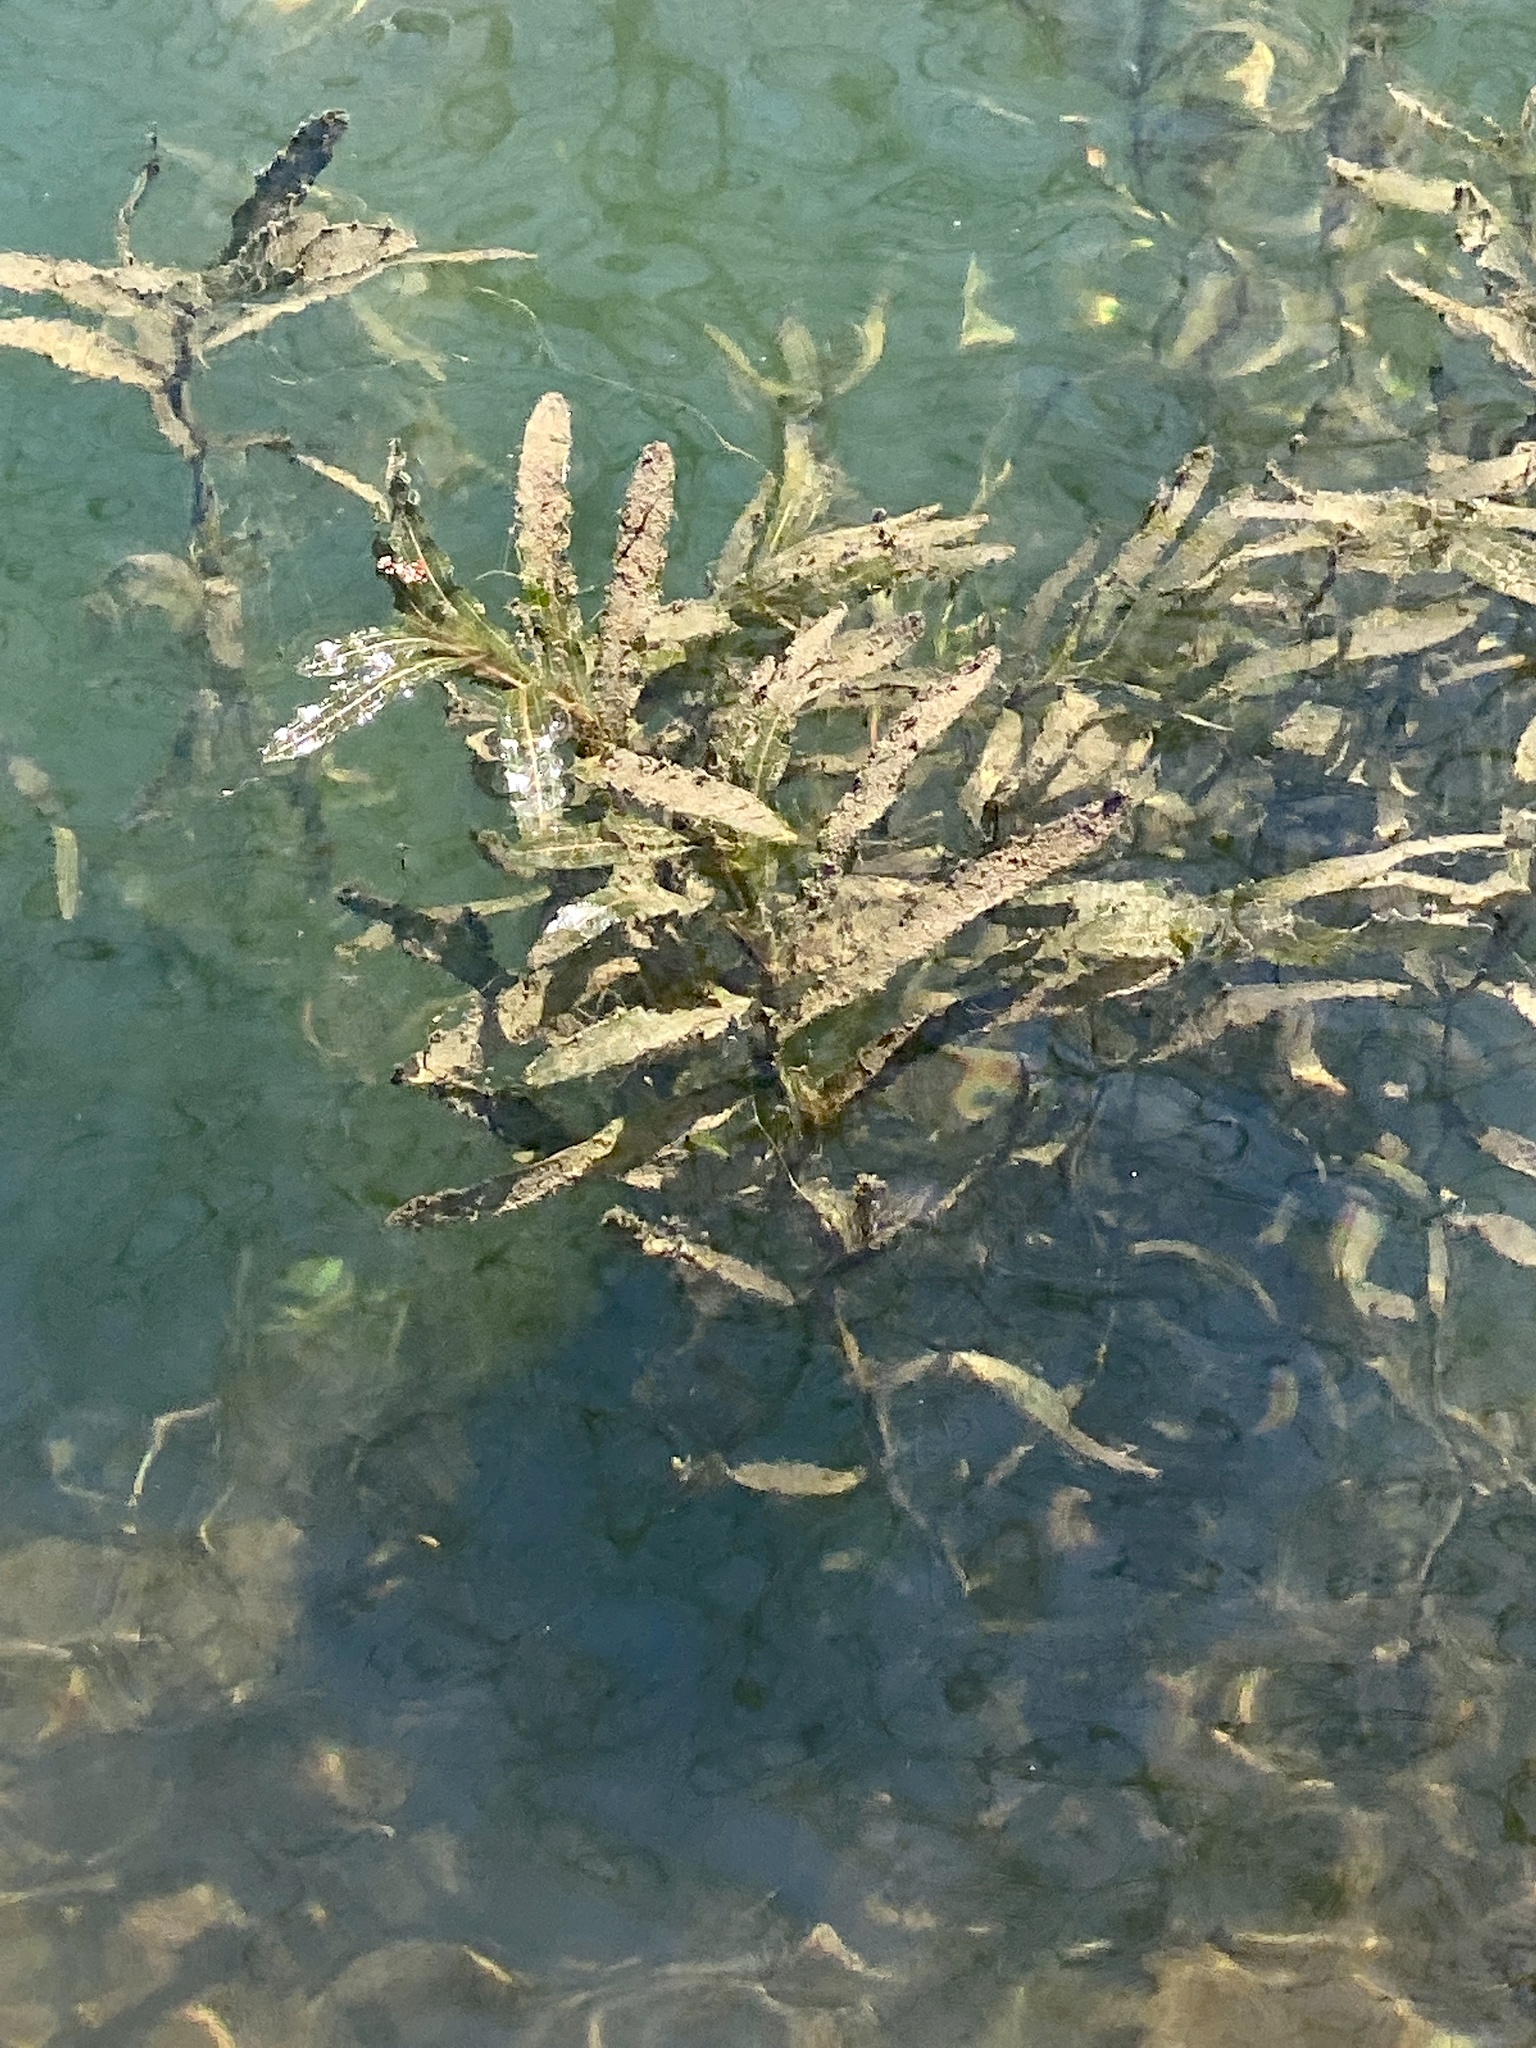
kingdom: Plantae
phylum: Tracheophyta
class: Liliopsida
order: Alismatales
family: Potamogetonaceae
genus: Potamogeton
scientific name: Potamogeton crispus
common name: Curled pondweed
